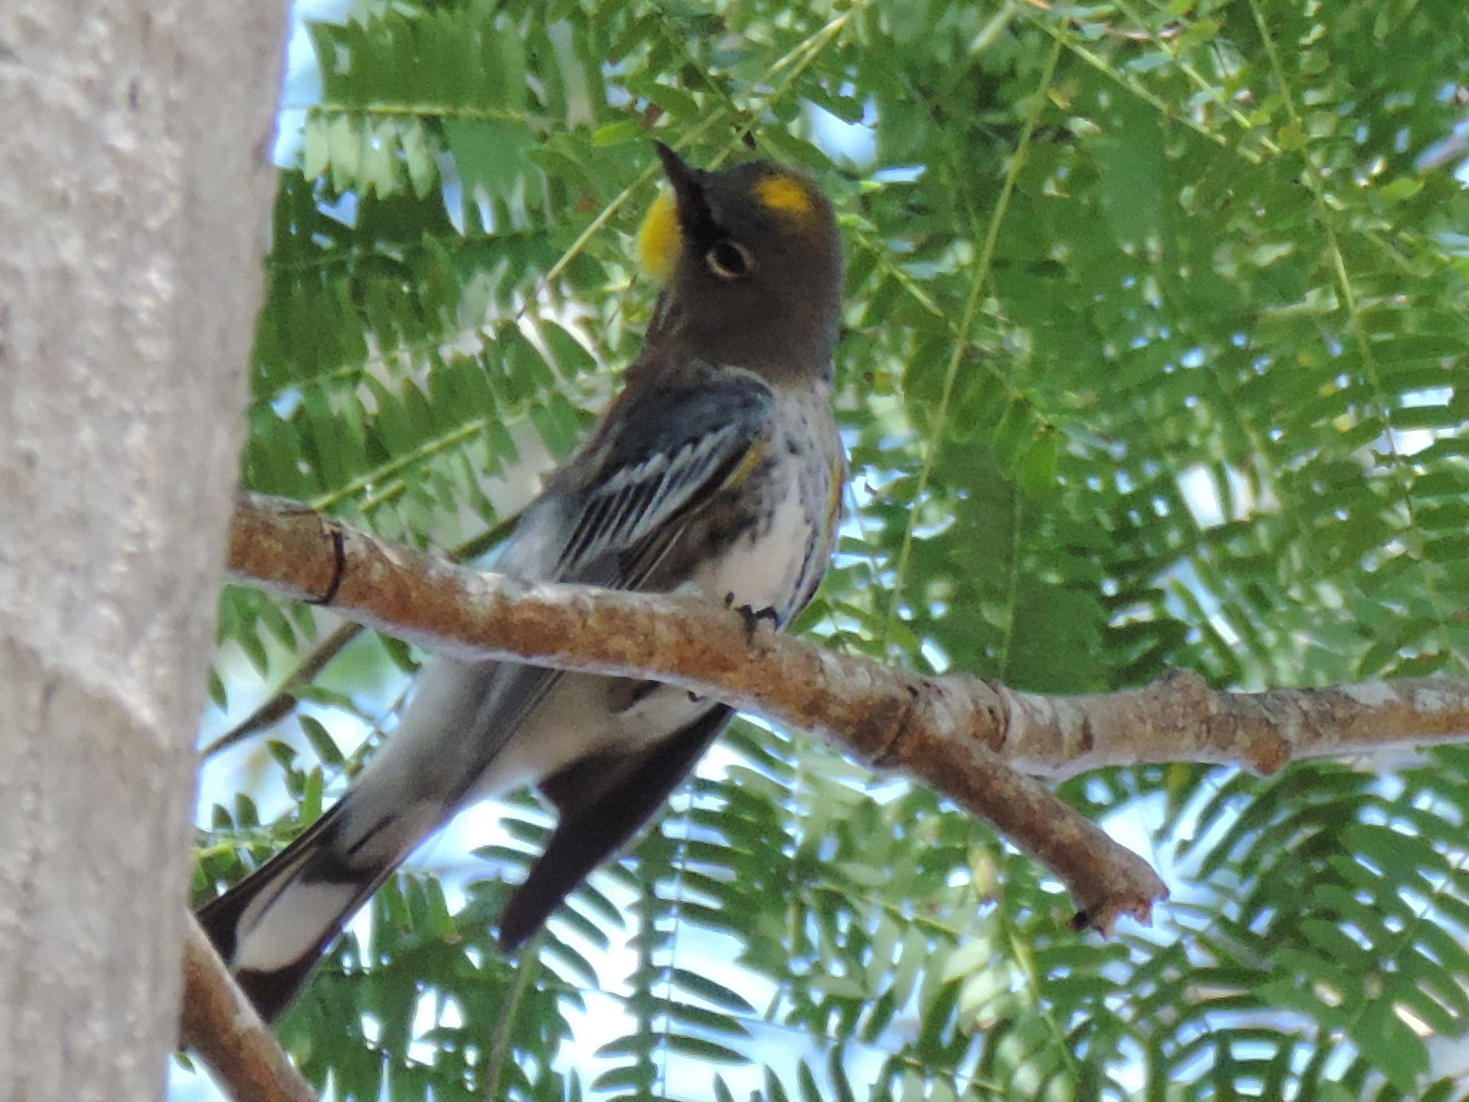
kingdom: Animalia
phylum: Chordata
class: Aves
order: Passeriformes
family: Parulidae
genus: Setophaga
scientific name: Setophaga coronata
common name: Myrtle warbler
